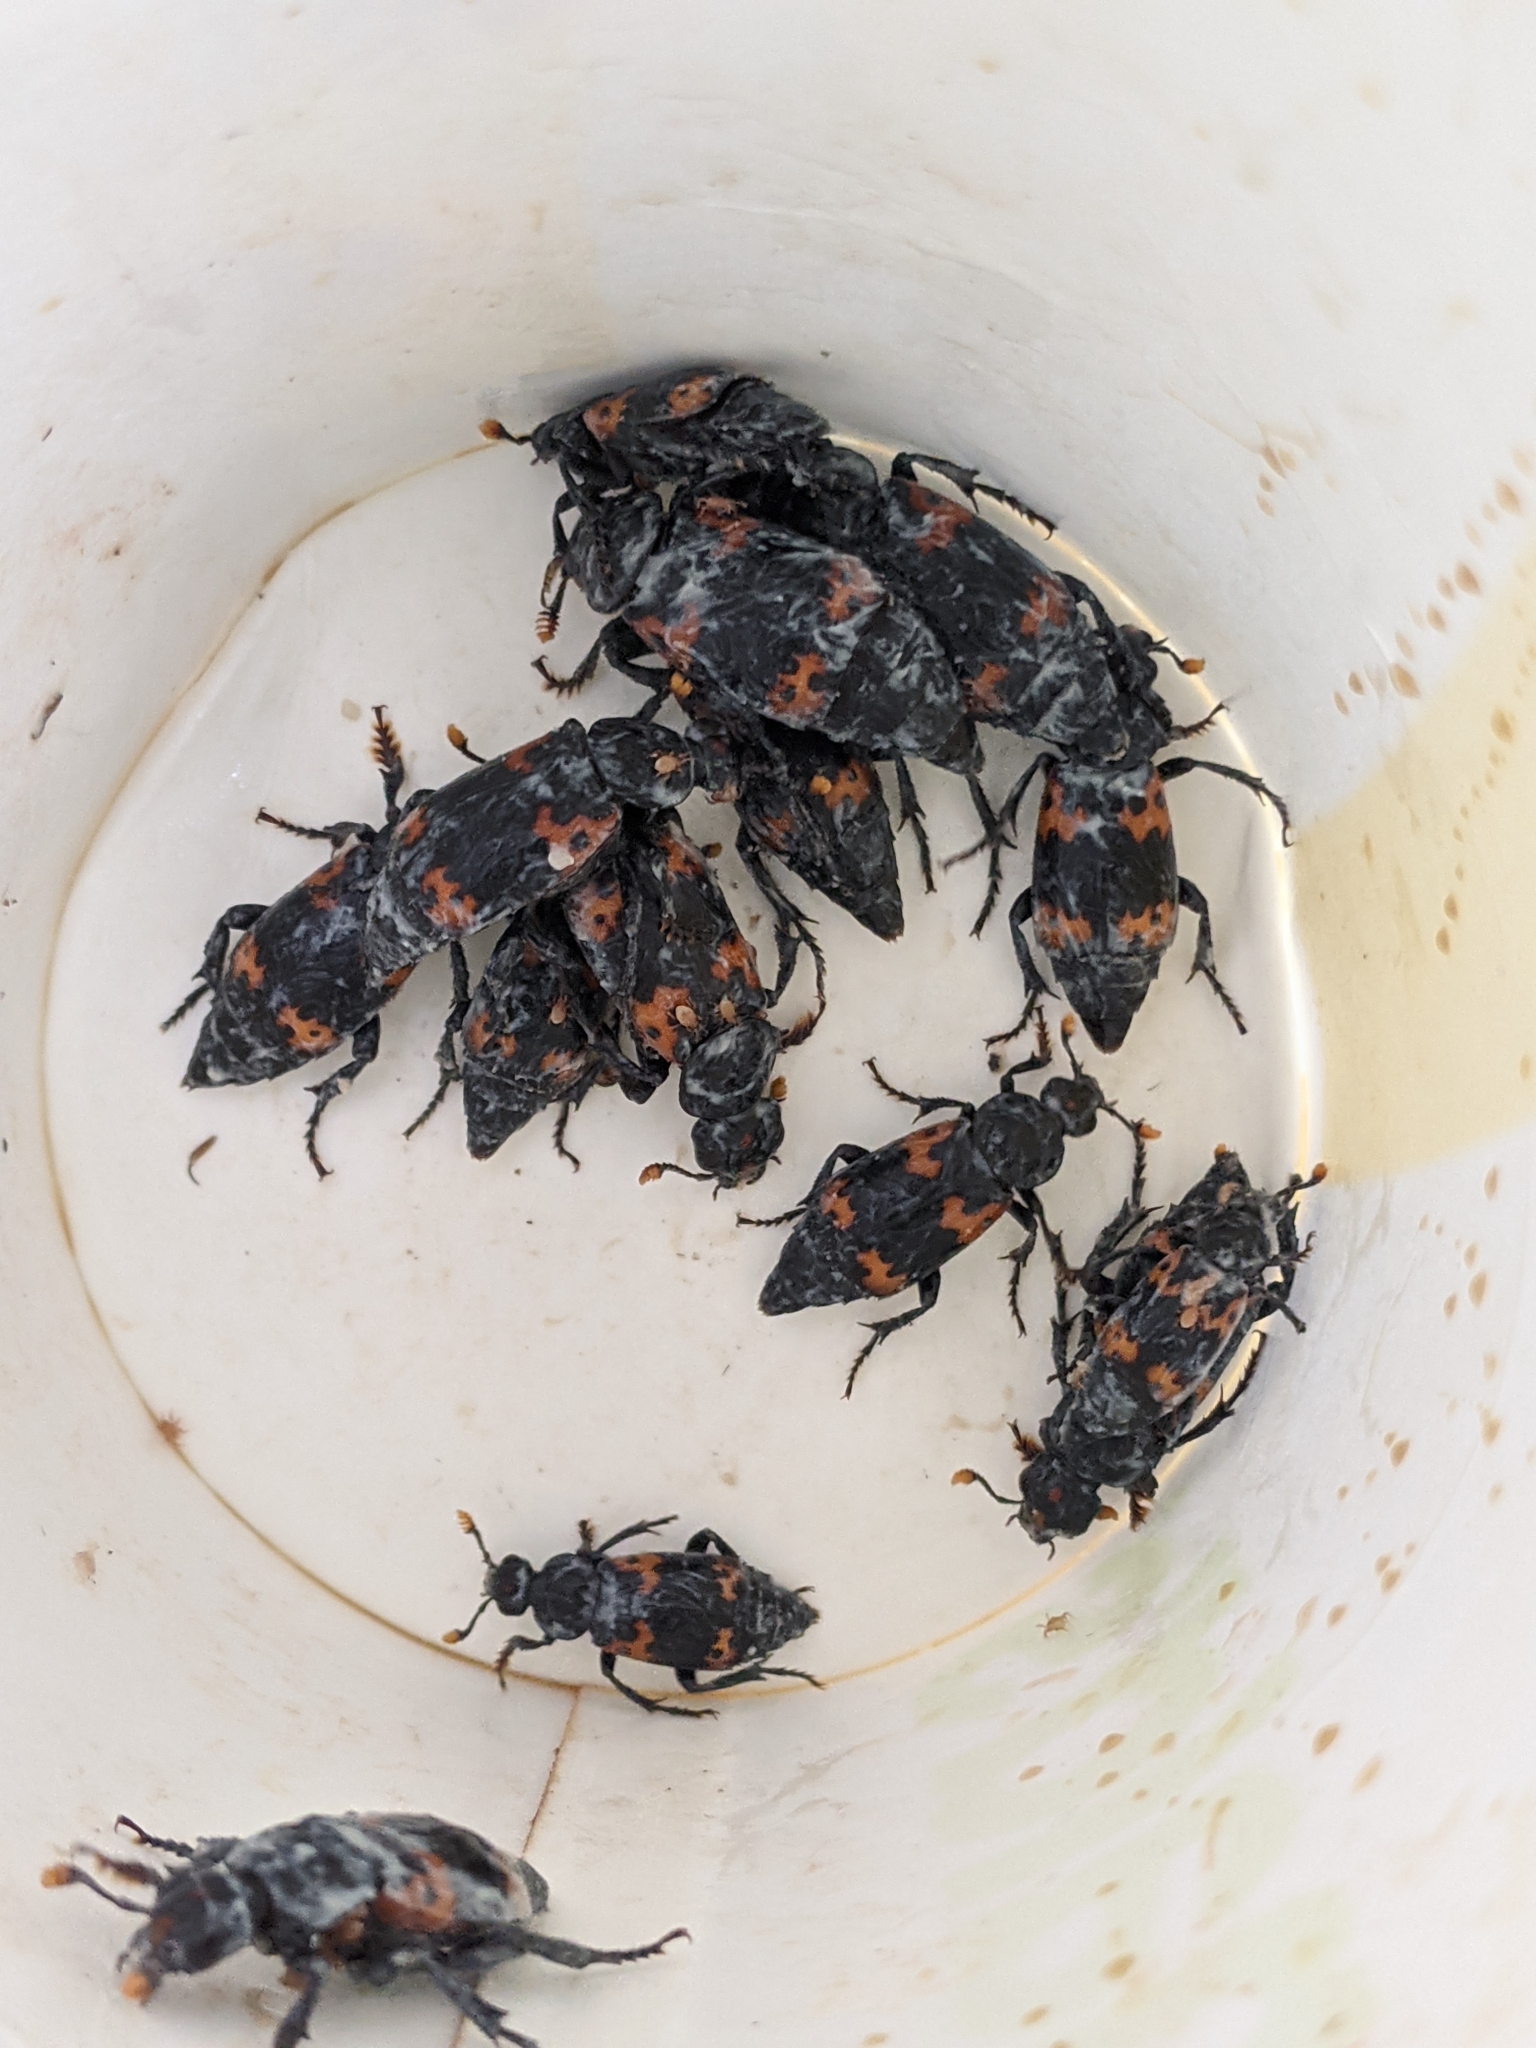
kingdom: Animalia
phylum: Arthropoda
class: Insecta
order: Coleoptera
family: Staphylinidae
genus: Nicrophorus
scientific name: Nicrophorus nepalensis
